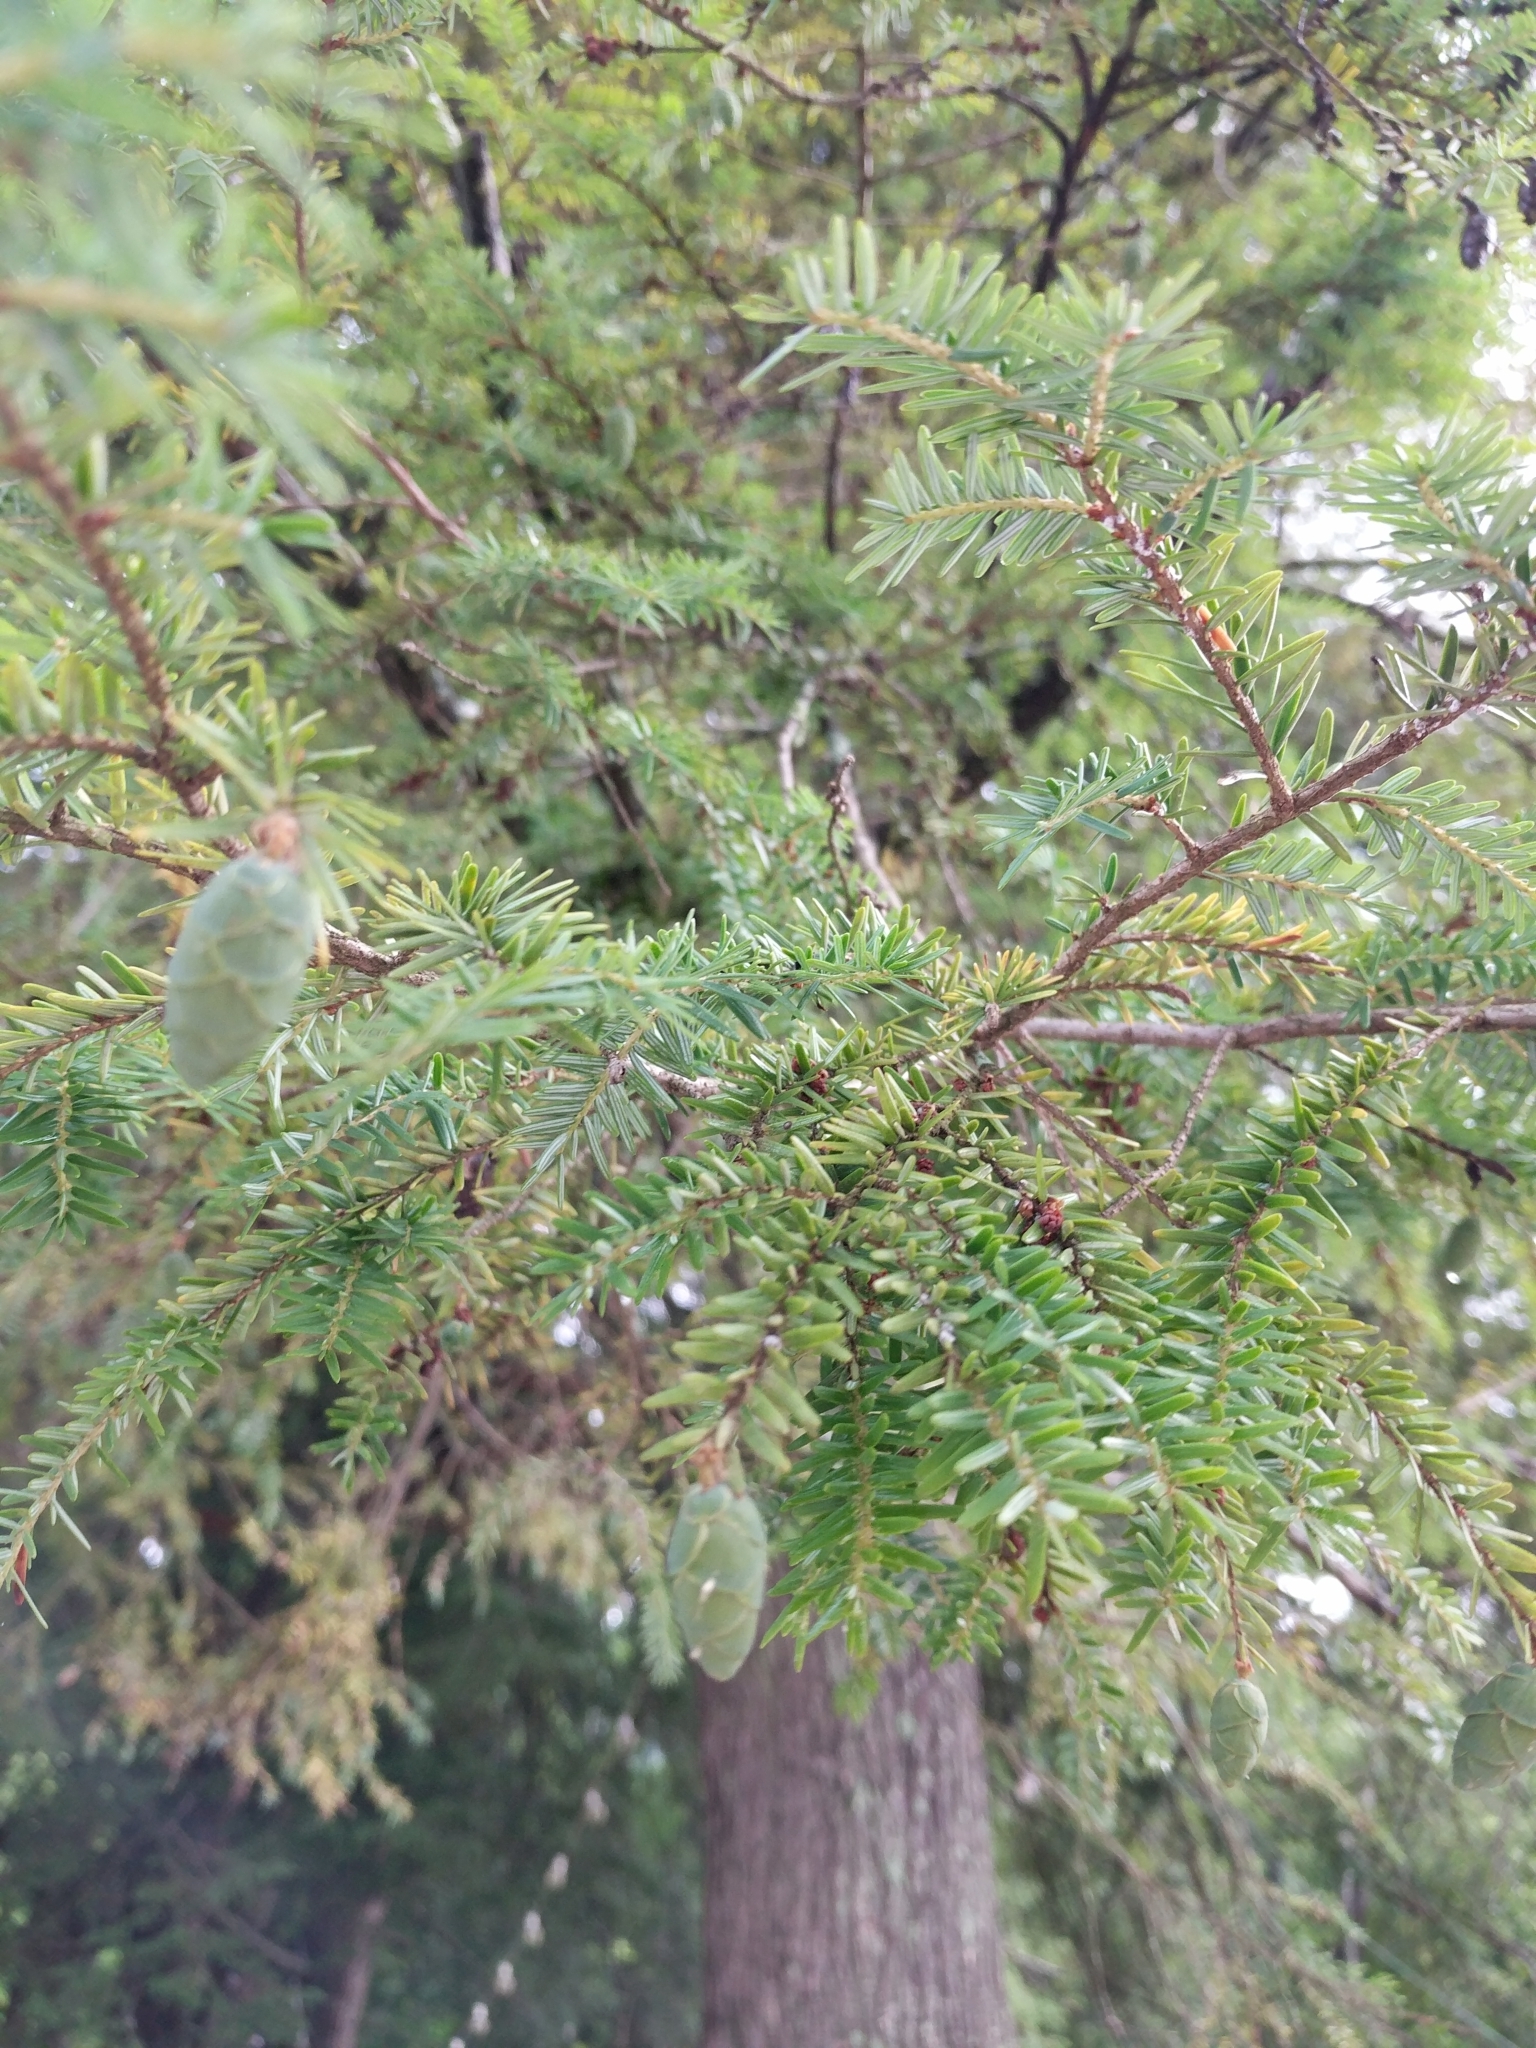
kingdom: Plantae
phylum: Tracheophyta
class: Pinopsida
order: Pinales
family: Pinaceae
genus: Tsuga
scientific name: Tsuga canadensis
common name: Eastern hemlock
